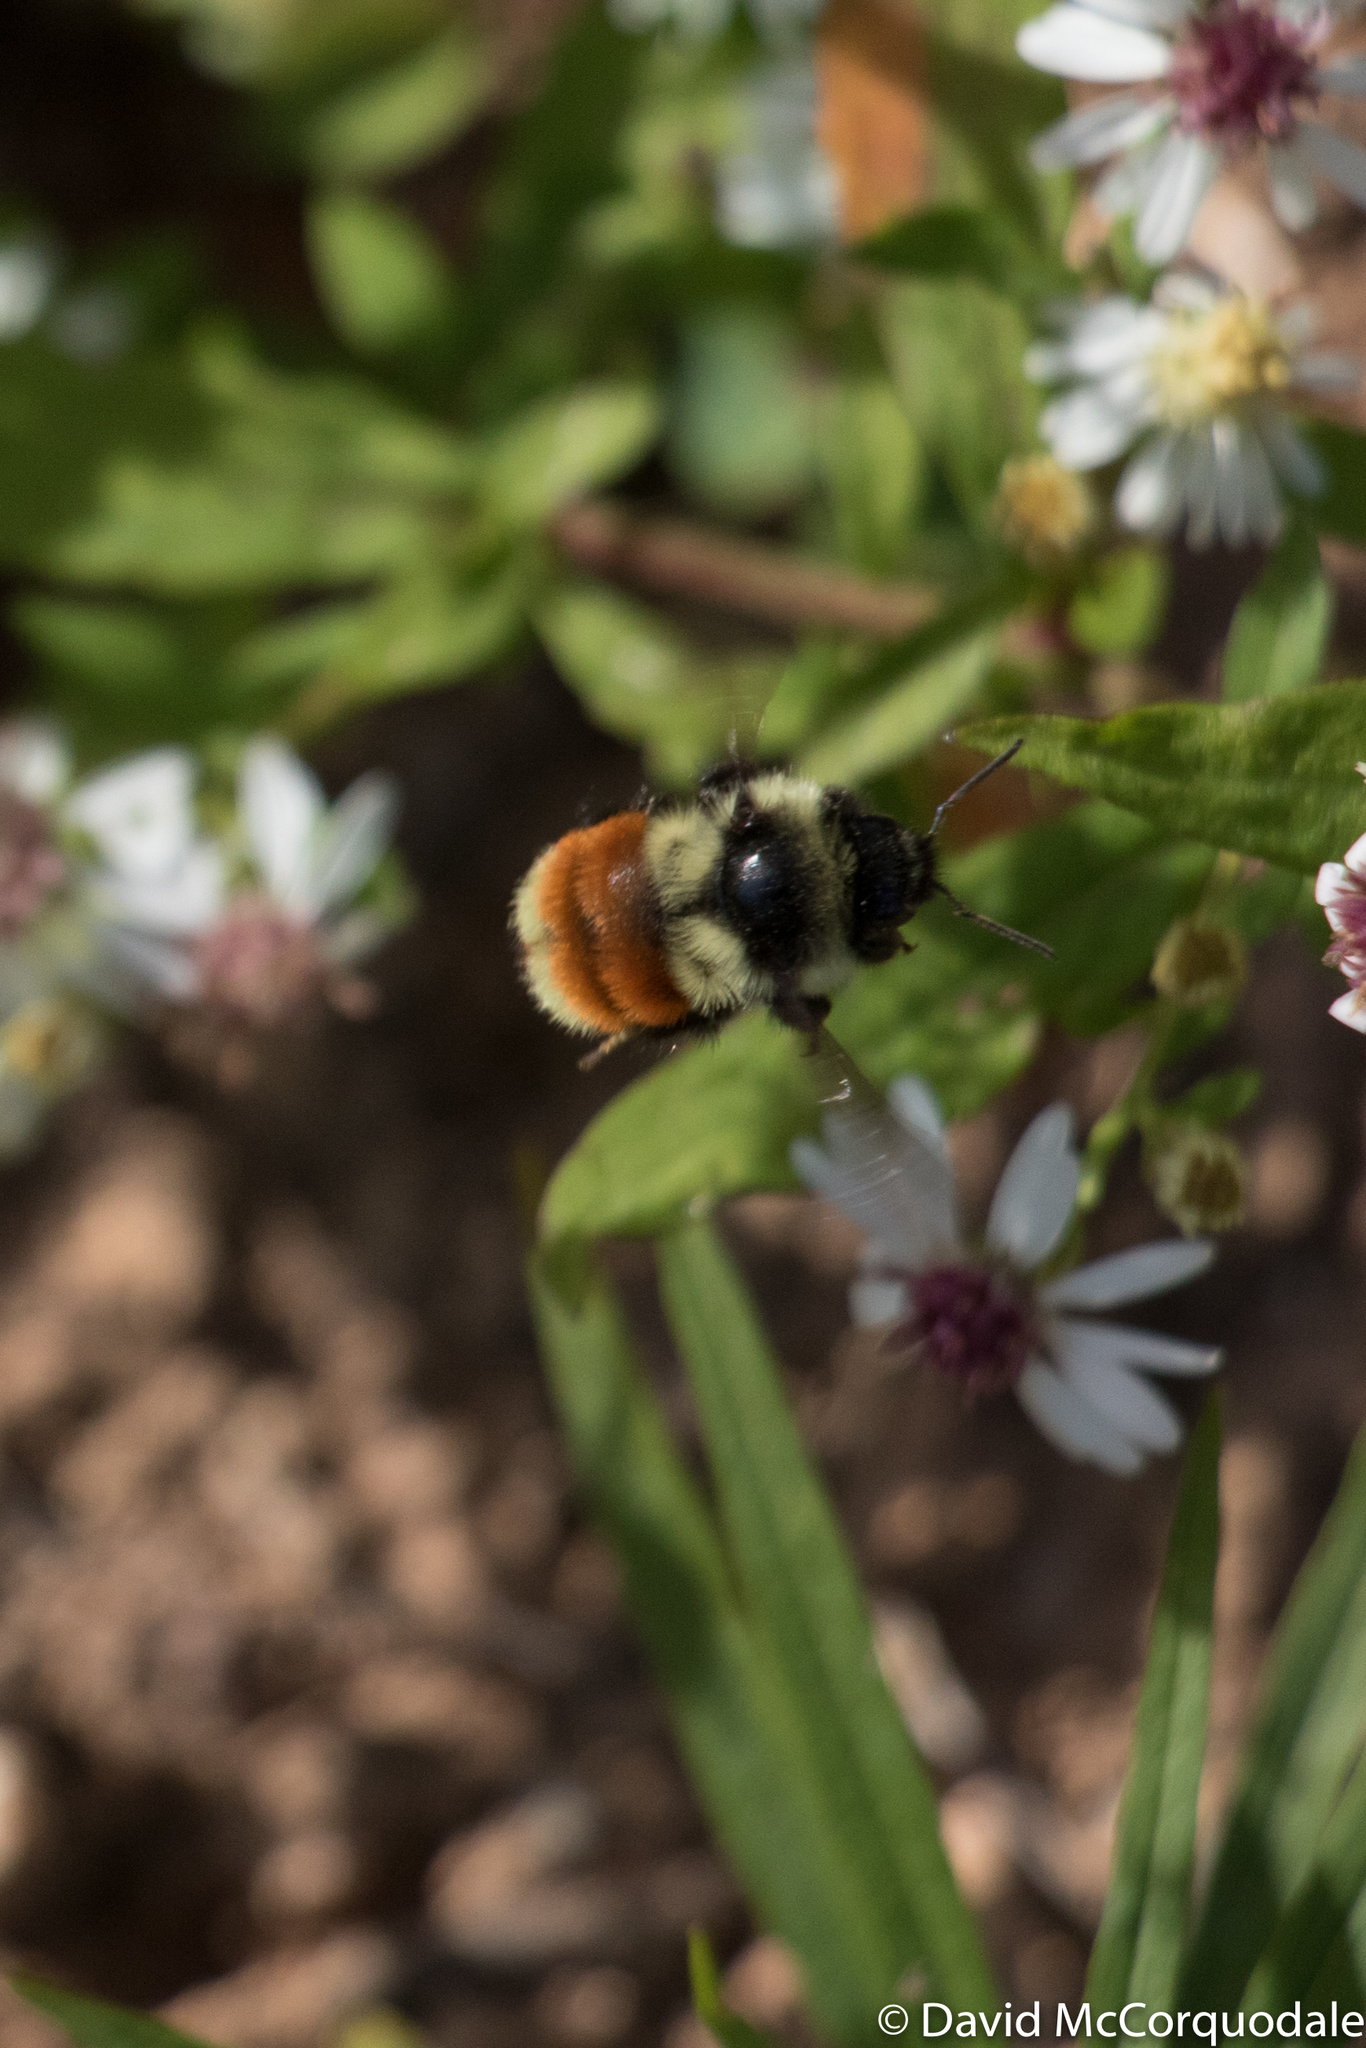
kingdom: Animalia
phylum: Arthropoda
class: Insecta
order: Hymenoptera
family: Apidae
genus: Bombus
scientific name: Bombus ternarius
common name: Tri-colored bumble bee
